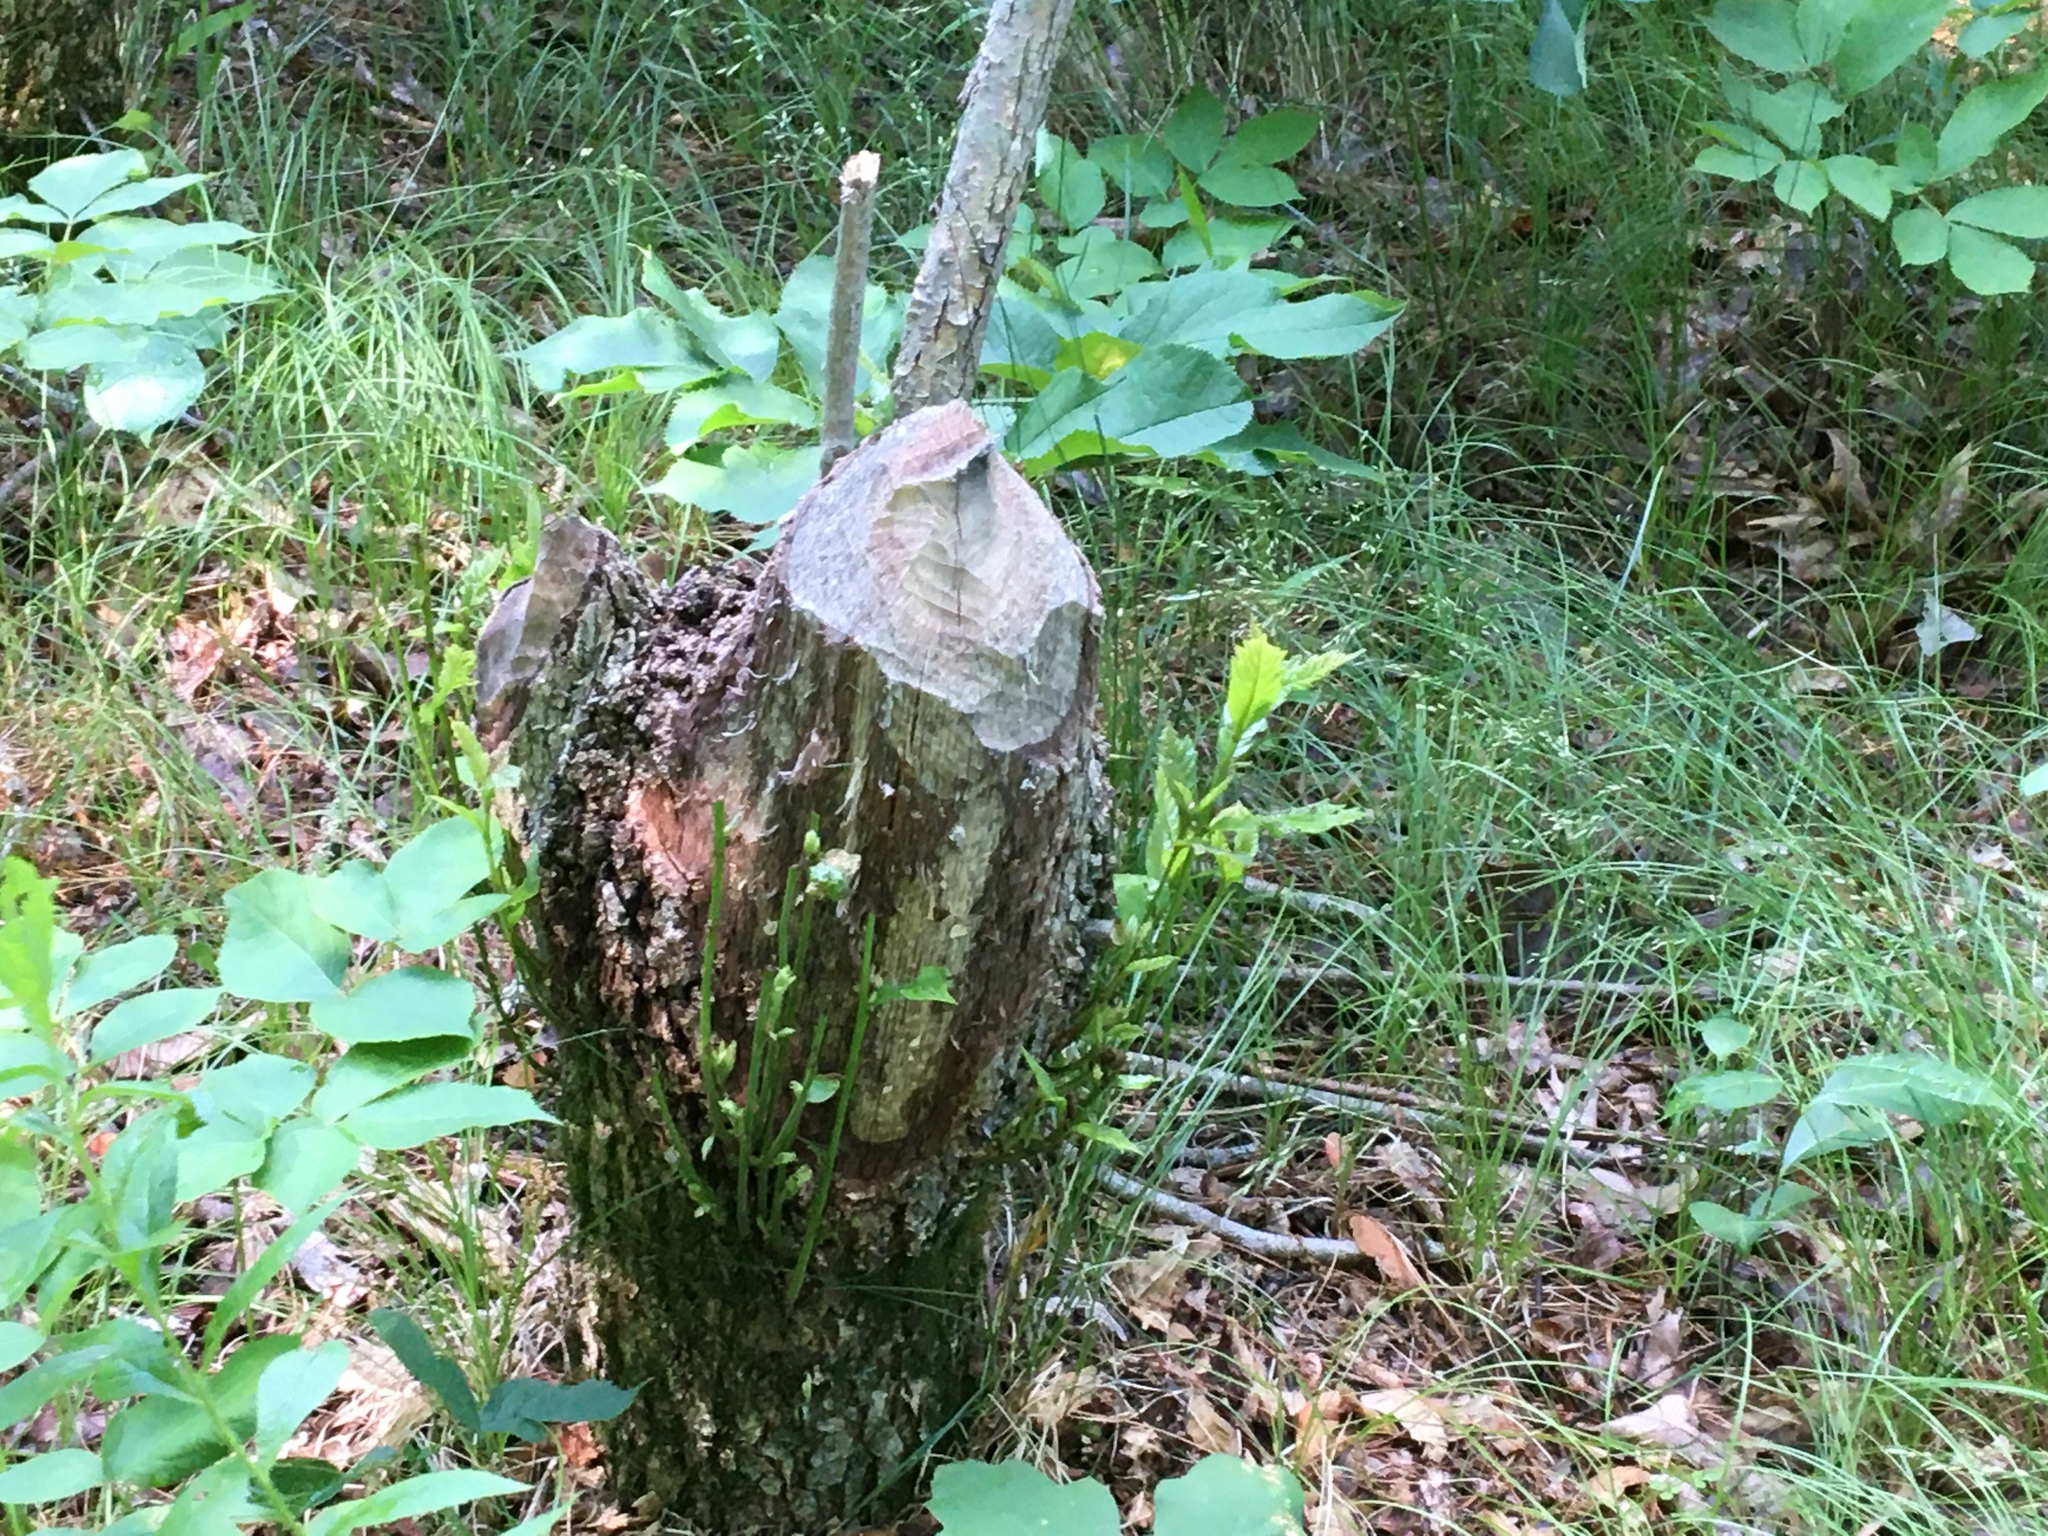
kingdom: Animalia
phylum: Chordata
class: Mammalia
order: Rodentia
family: Castoridae
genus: Castor
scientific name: Castor canadensis
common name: American beaver
